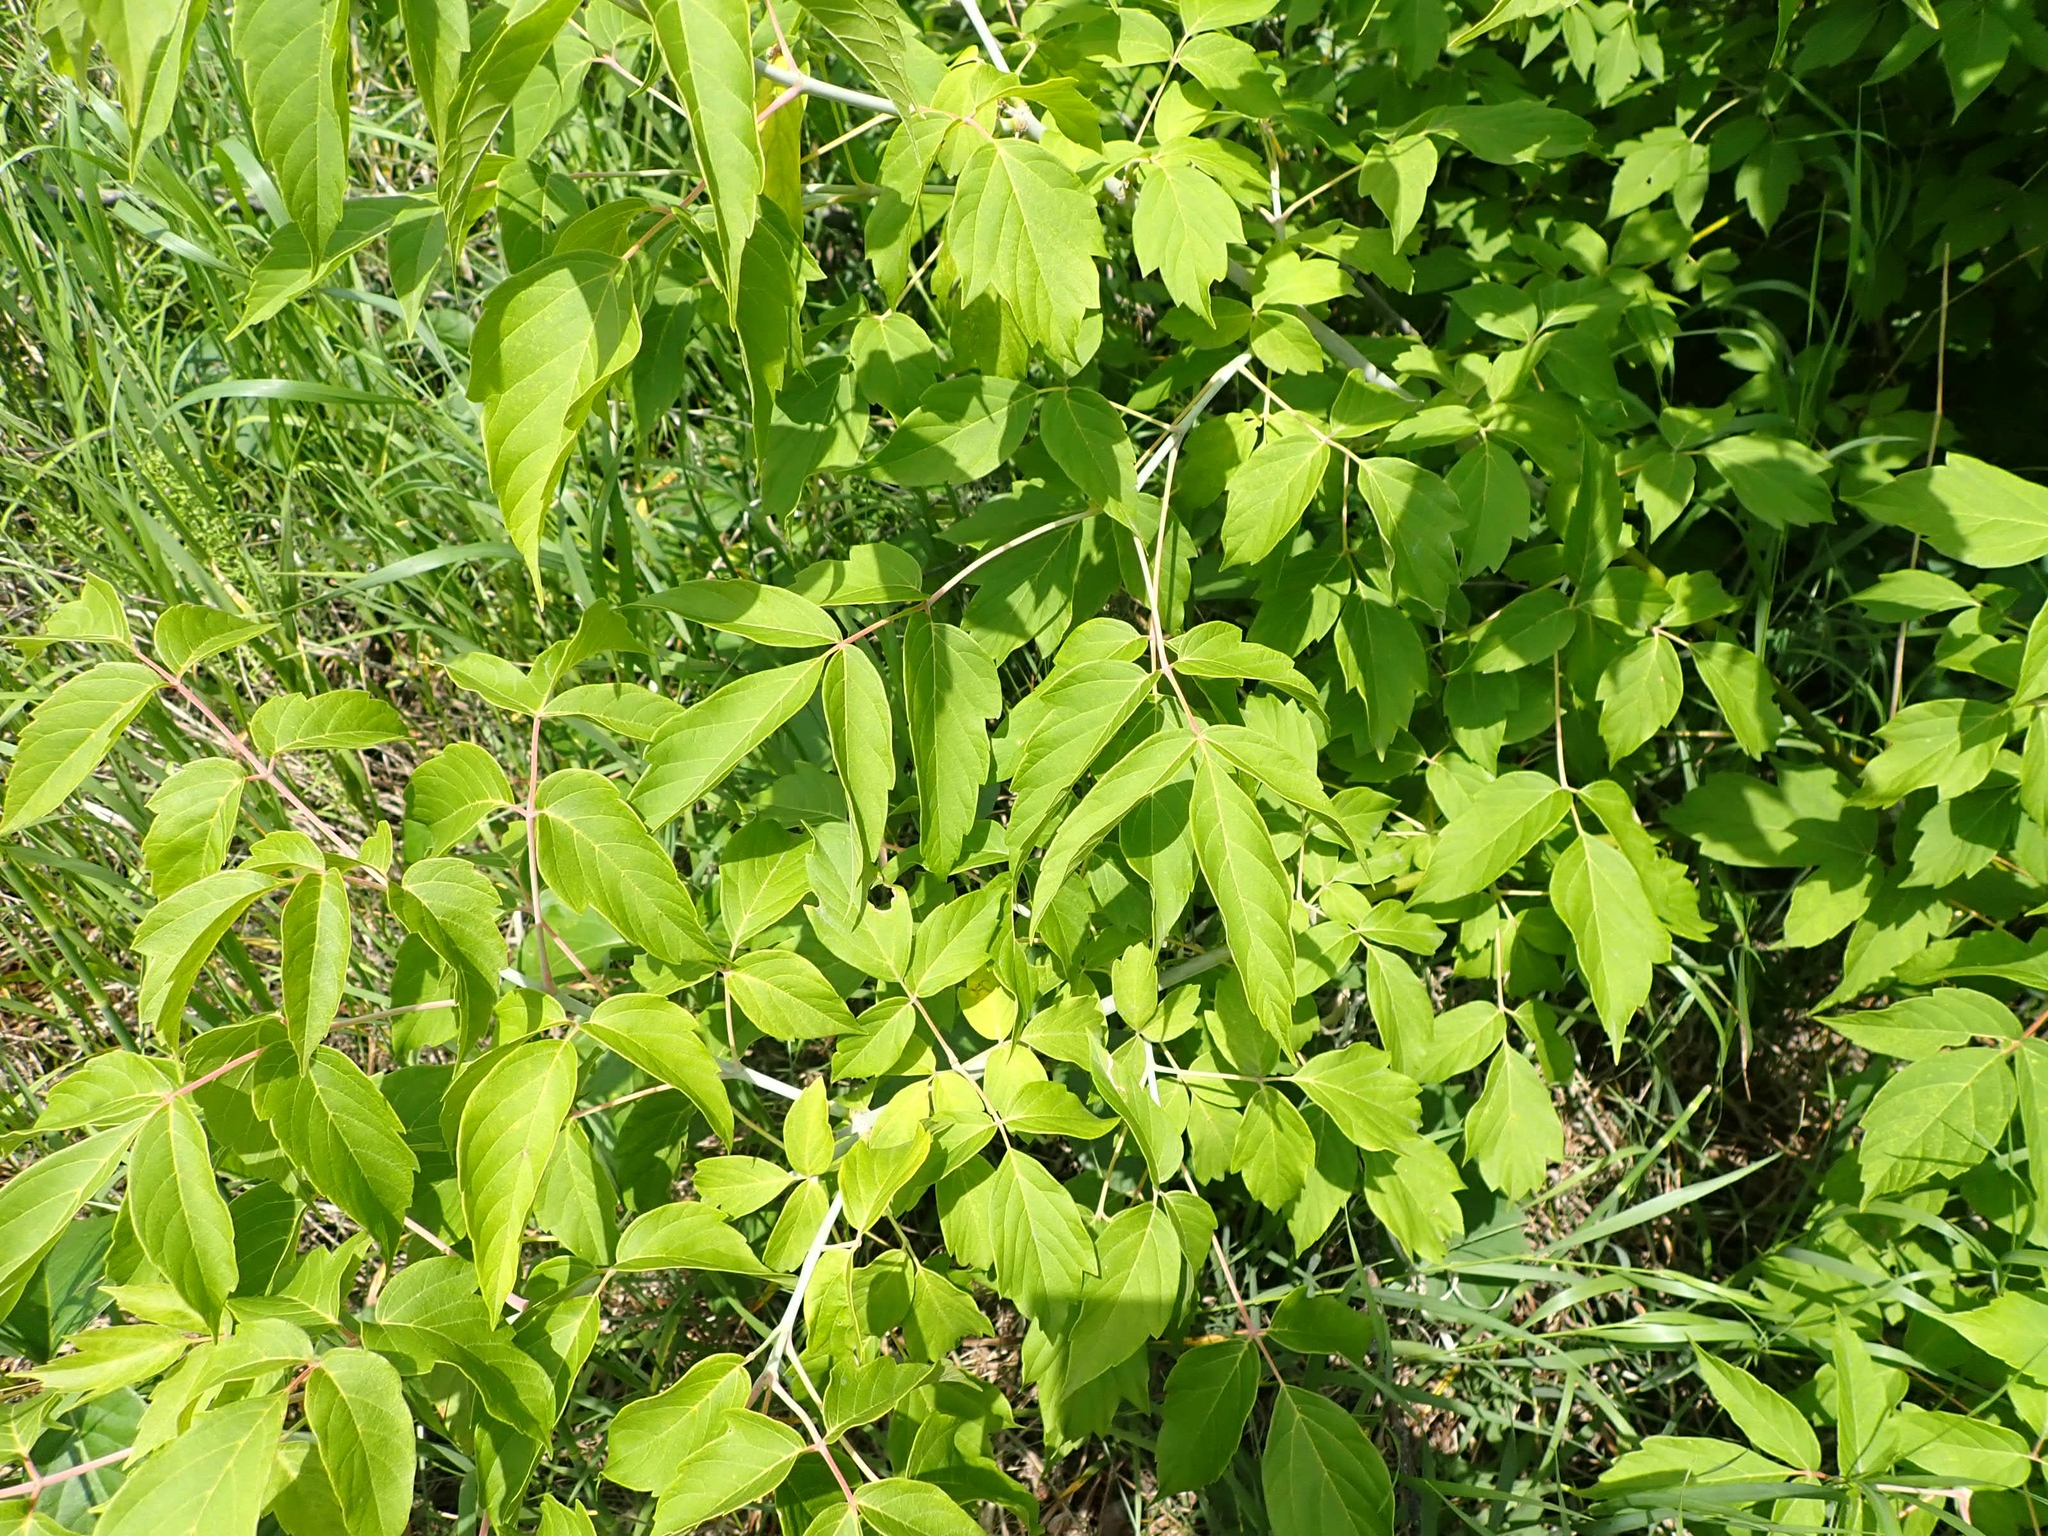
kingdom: Plantae
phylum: Tracheophyta
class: Magnoliopsida
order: Sapindales
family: Sapindaceae
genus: Acer
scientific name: Acer negundo
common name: Ashleaf maple
